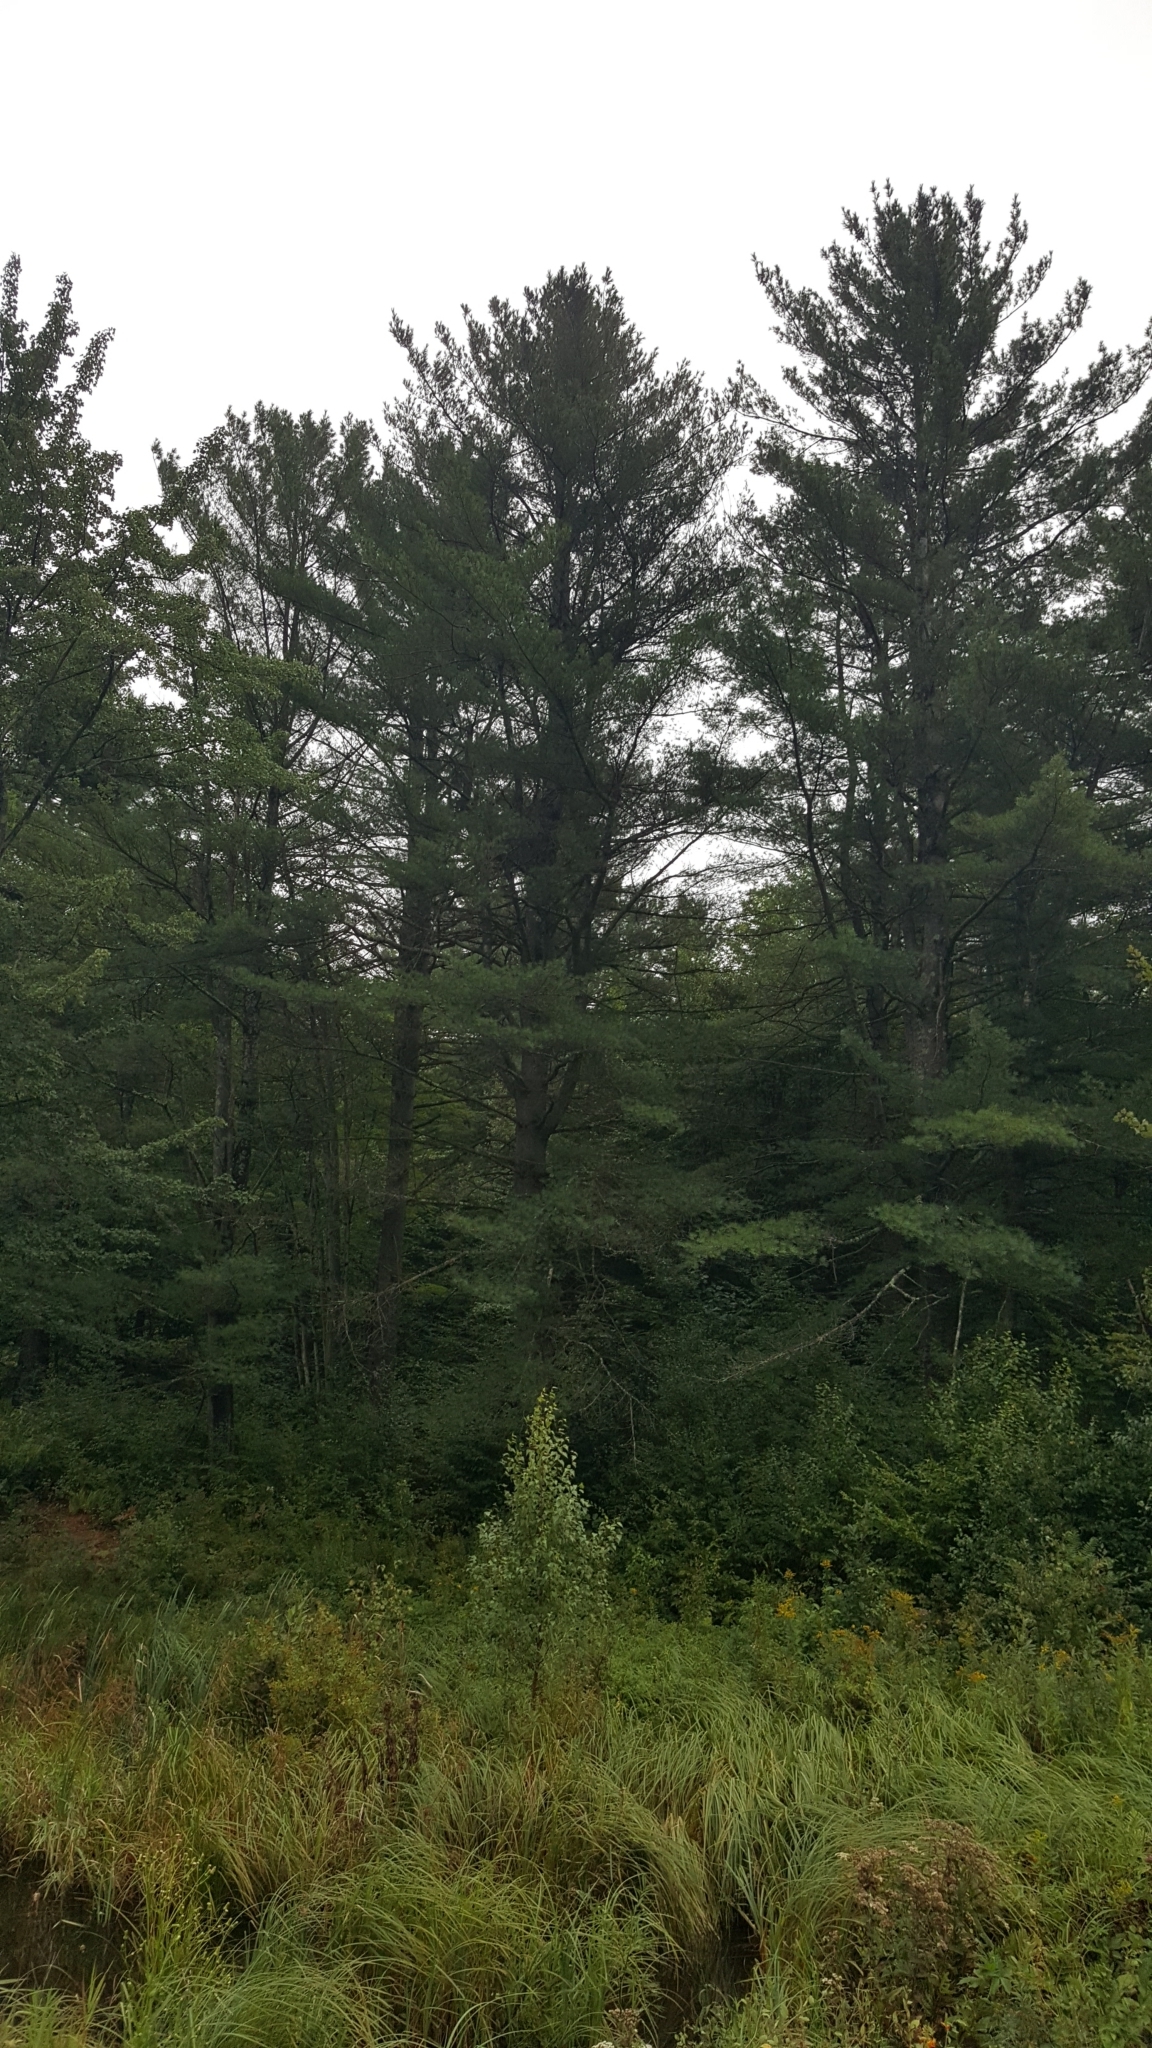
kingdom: Plantae
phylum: Tracheophyta
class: Pinopsida
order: Pinales
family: Pinaceae
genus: Pinus
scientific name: Pinus strobus
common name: Weymouth pine
